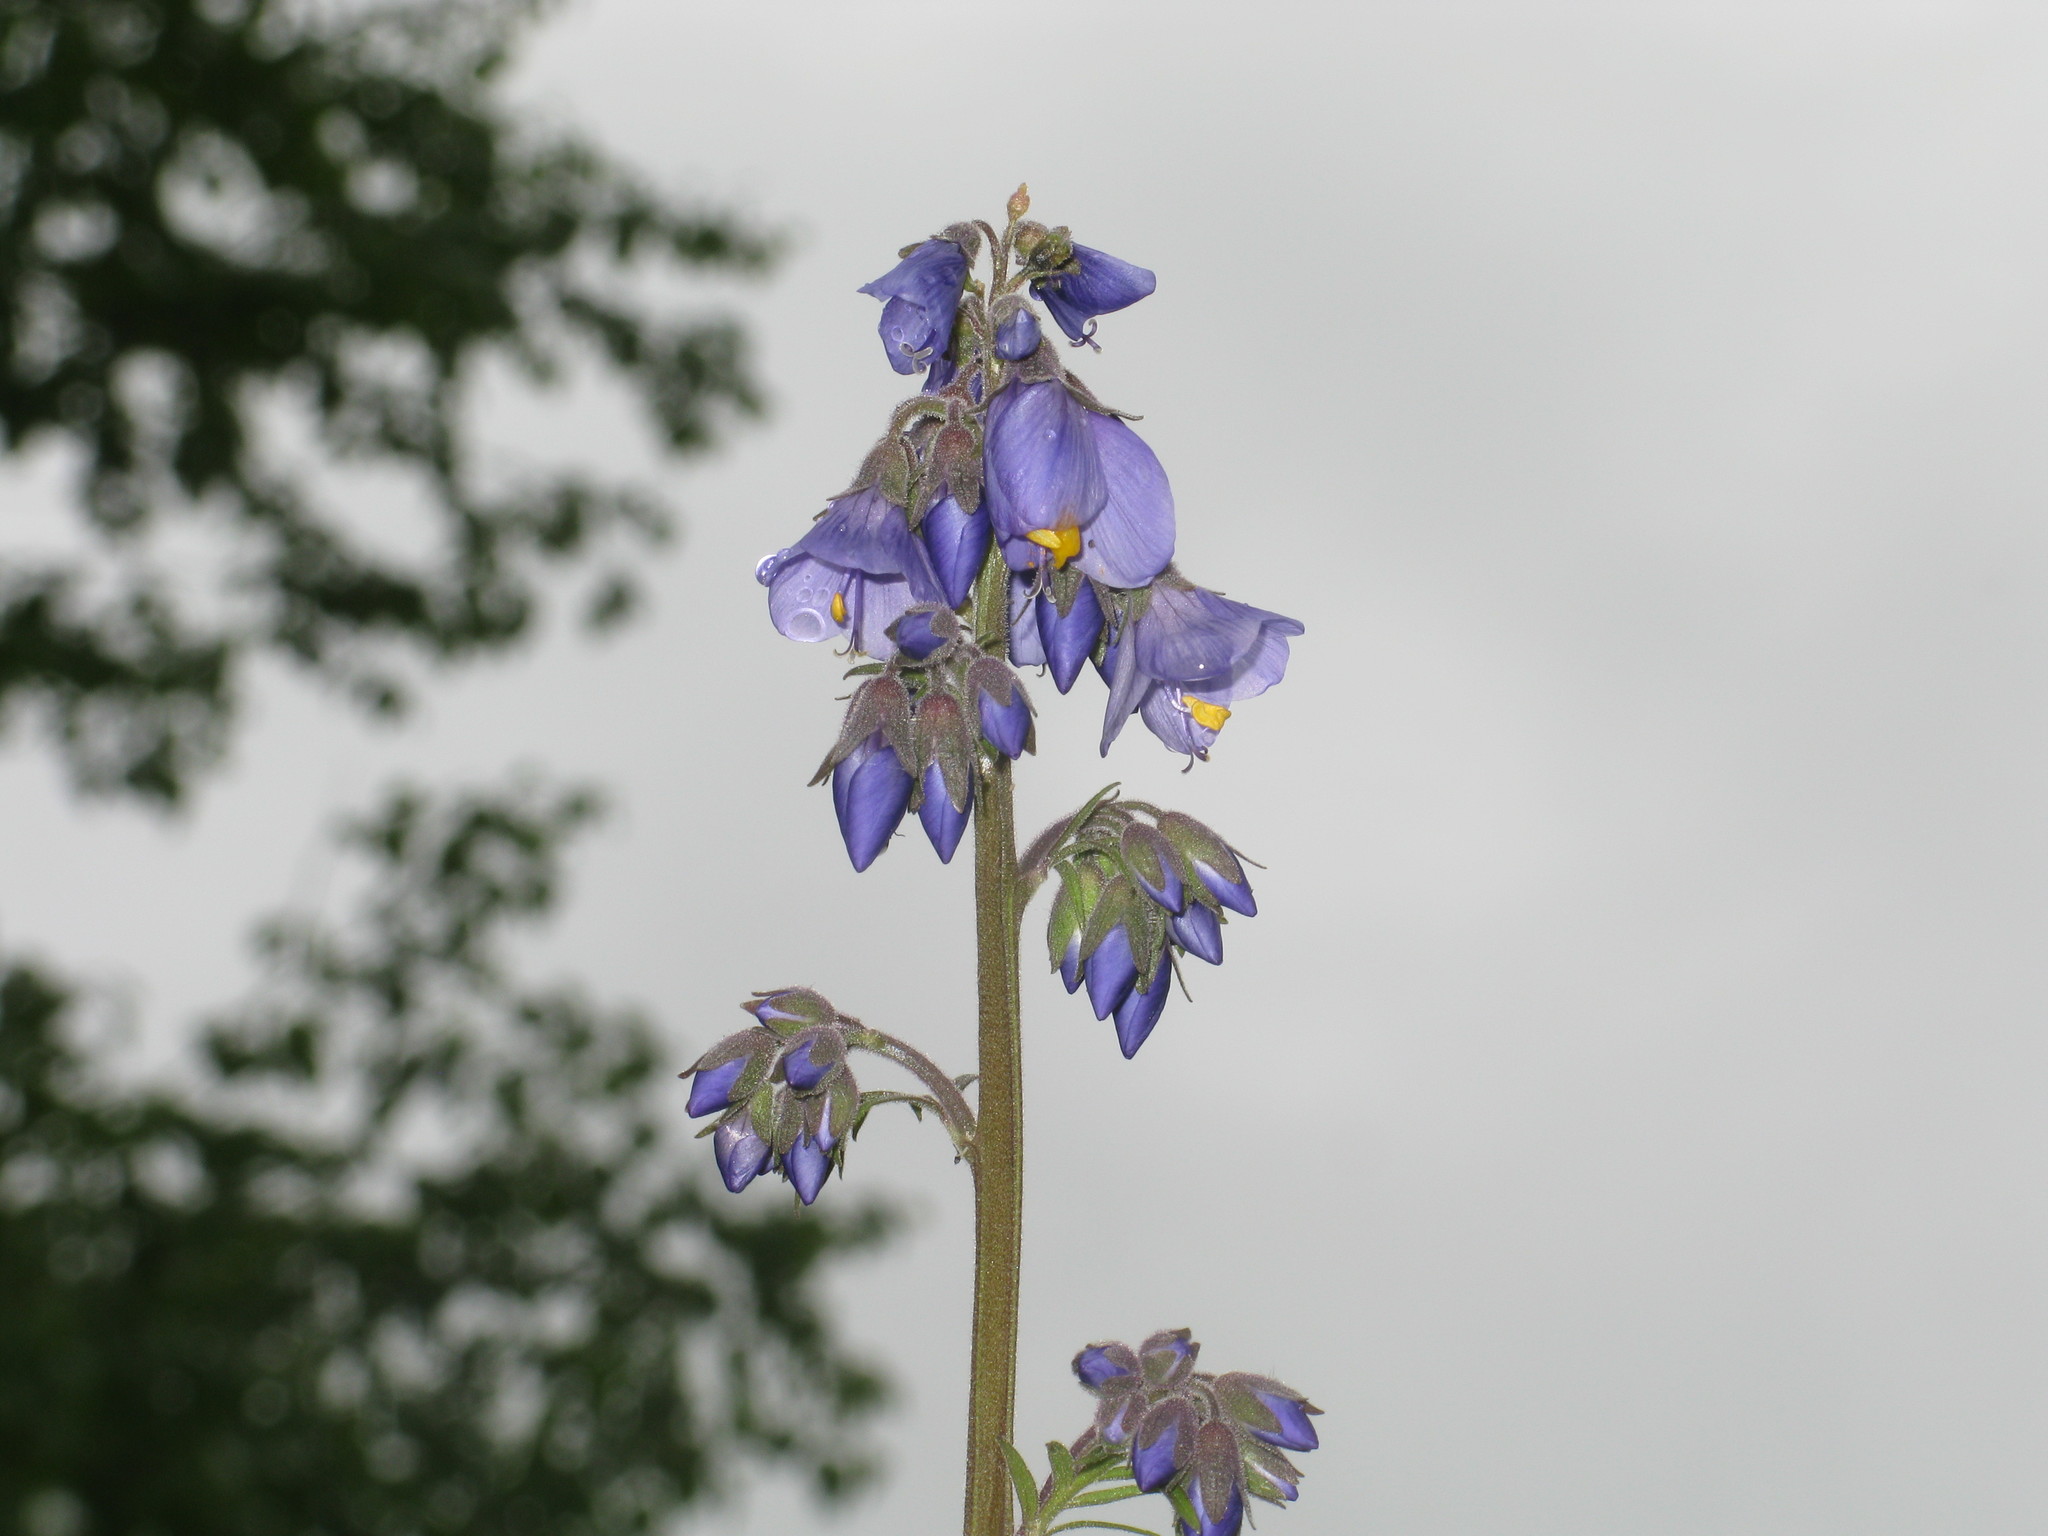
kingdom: Plantae
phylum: Tracheophyta
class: Magnoliopsida
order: Ericales
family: Polemoniaceae
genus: Polemonium
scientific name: Polemonium caeruleum
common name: Jacob's-ladder
